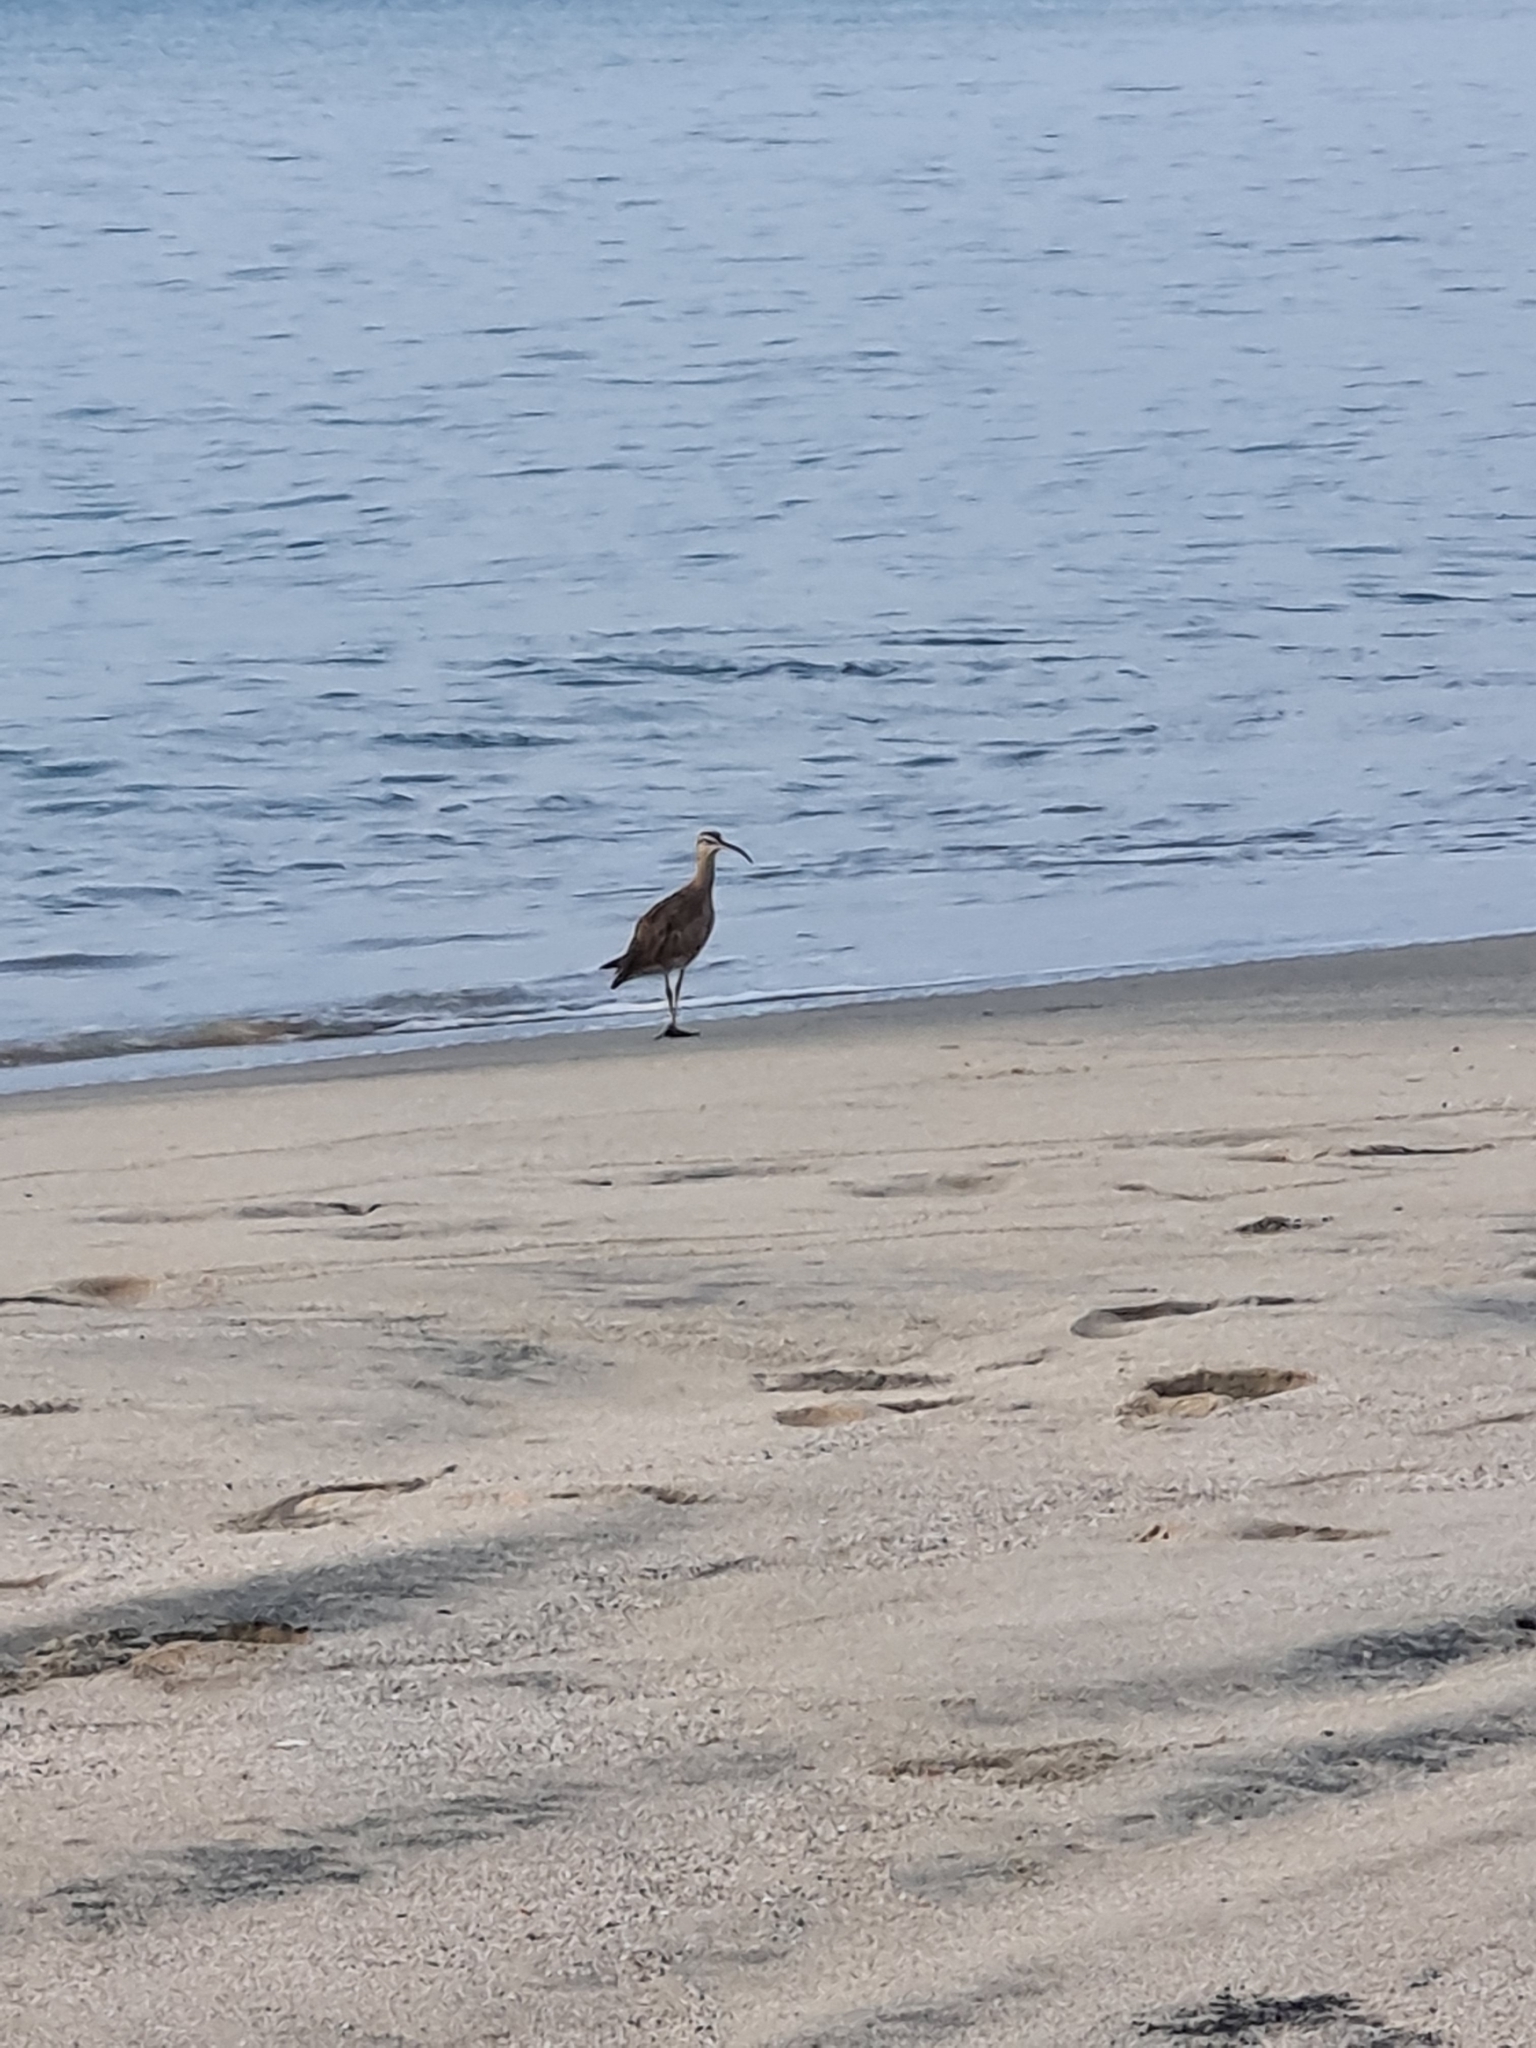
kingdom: Animalia
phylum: Chordata
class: Aves
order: Charadriiformes
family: Scolopacidae
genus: Numenius
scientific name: Numenius phaeopus
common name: Whimbrel
